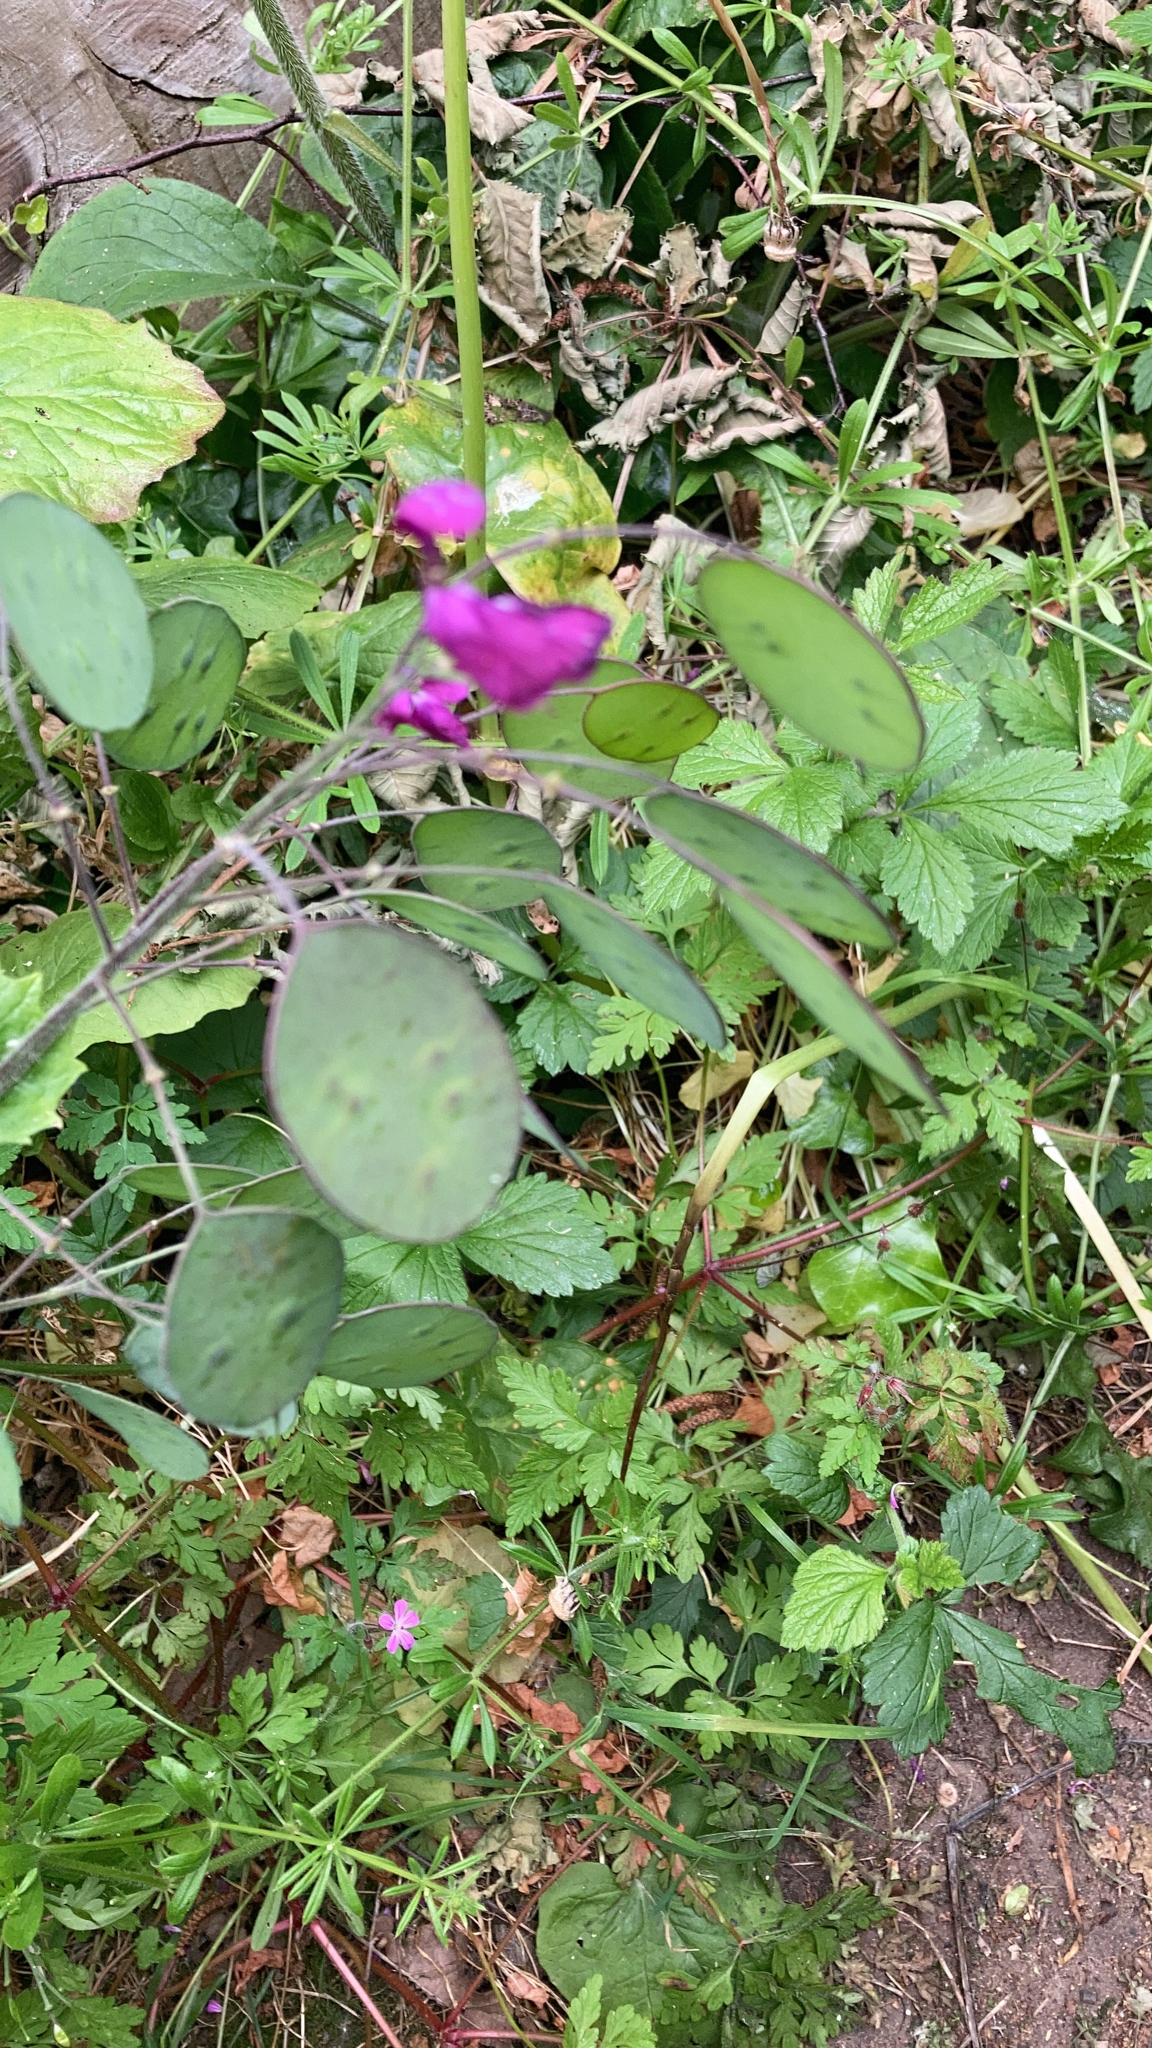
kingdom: Plantae
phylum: Tracheophyta
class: Magnoliopsida
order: Brassicales
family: Brassicaceae
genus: Lunaria
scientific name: Lunaria annua
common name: Honesty
